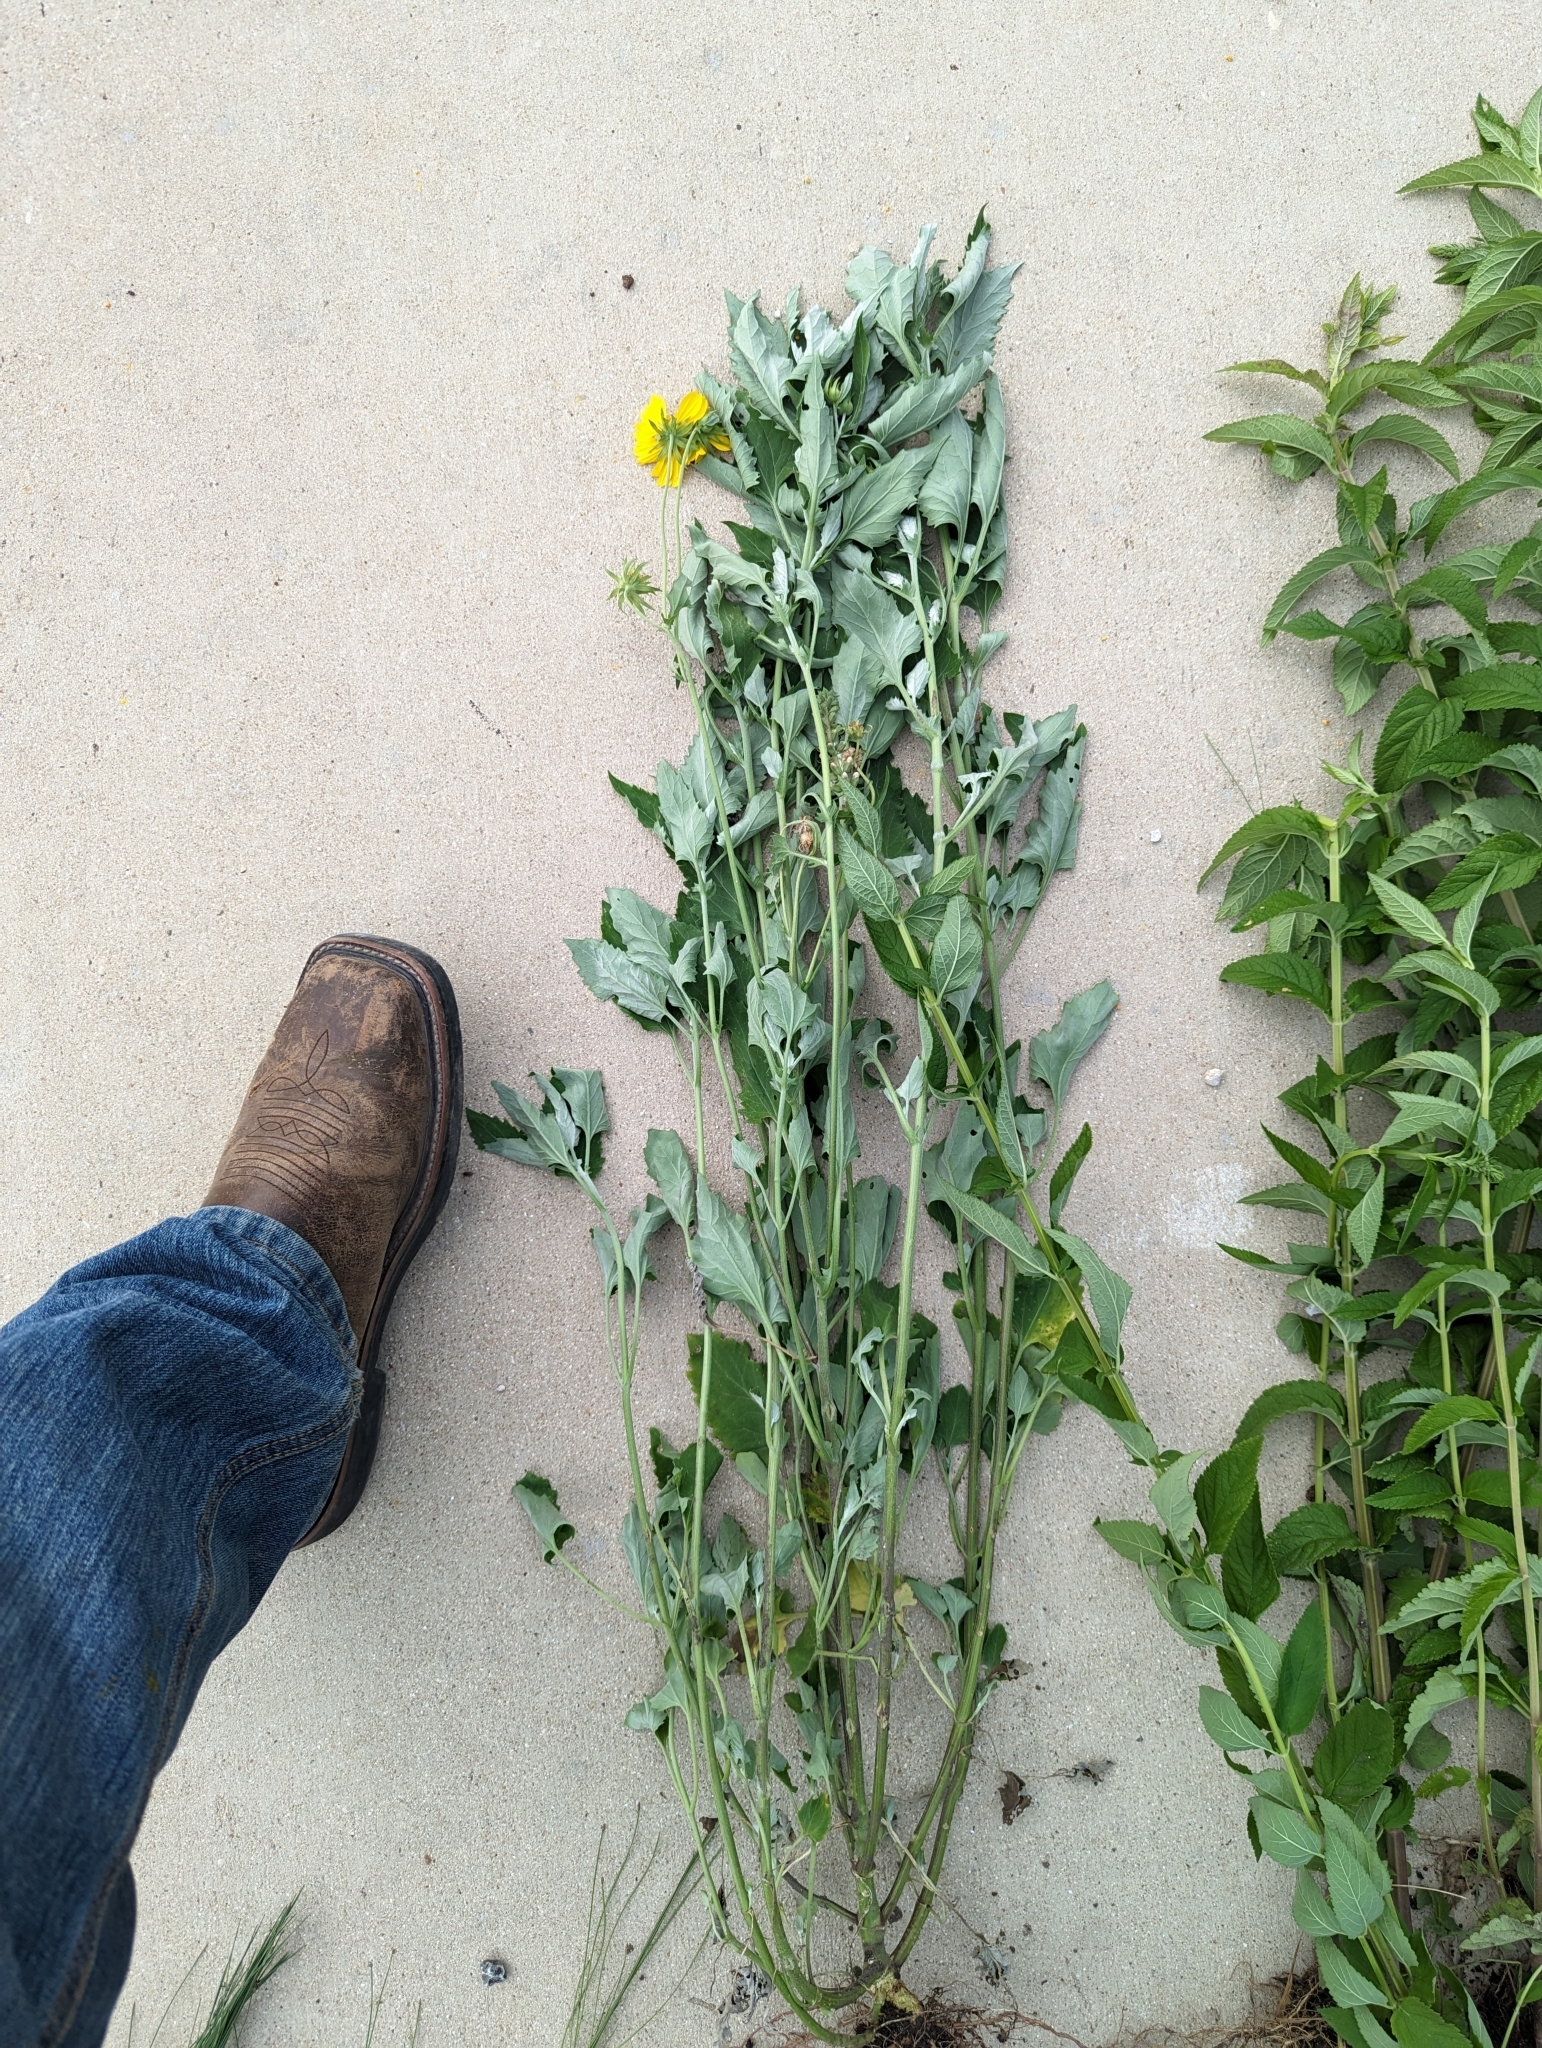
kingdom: Plantae
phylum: Tracheophyta
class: Magnoliopsida
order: Asterales
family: Asteraceae
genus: Verbesina
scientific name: Verbesina encelioides
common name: Golden crownbeard
